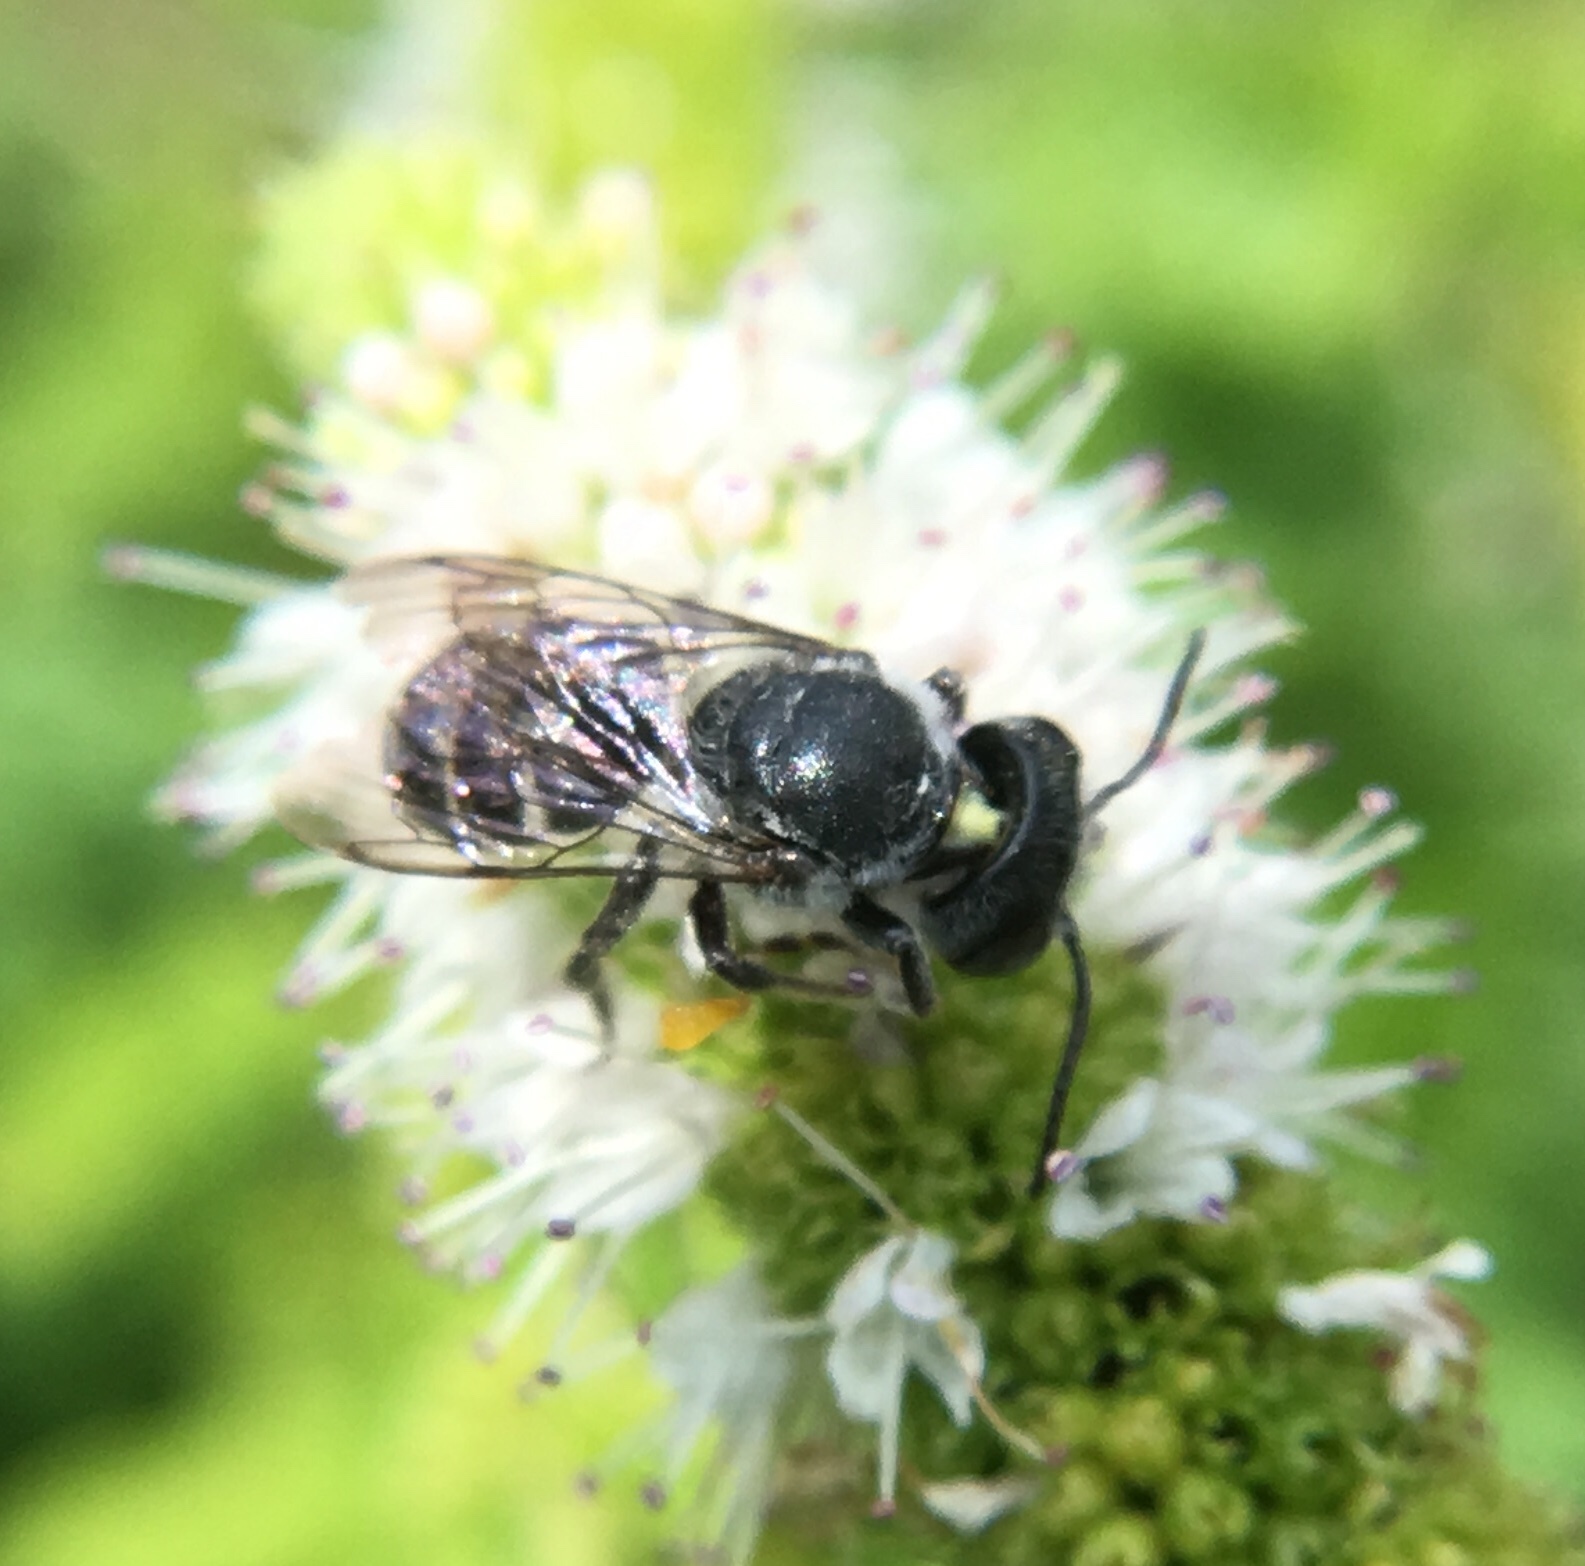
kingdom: Animalia
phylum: Arthropoda
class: Insecta
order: Hymenoptera
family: Megachilidae
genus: Megachile
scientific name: Megachile exilis
